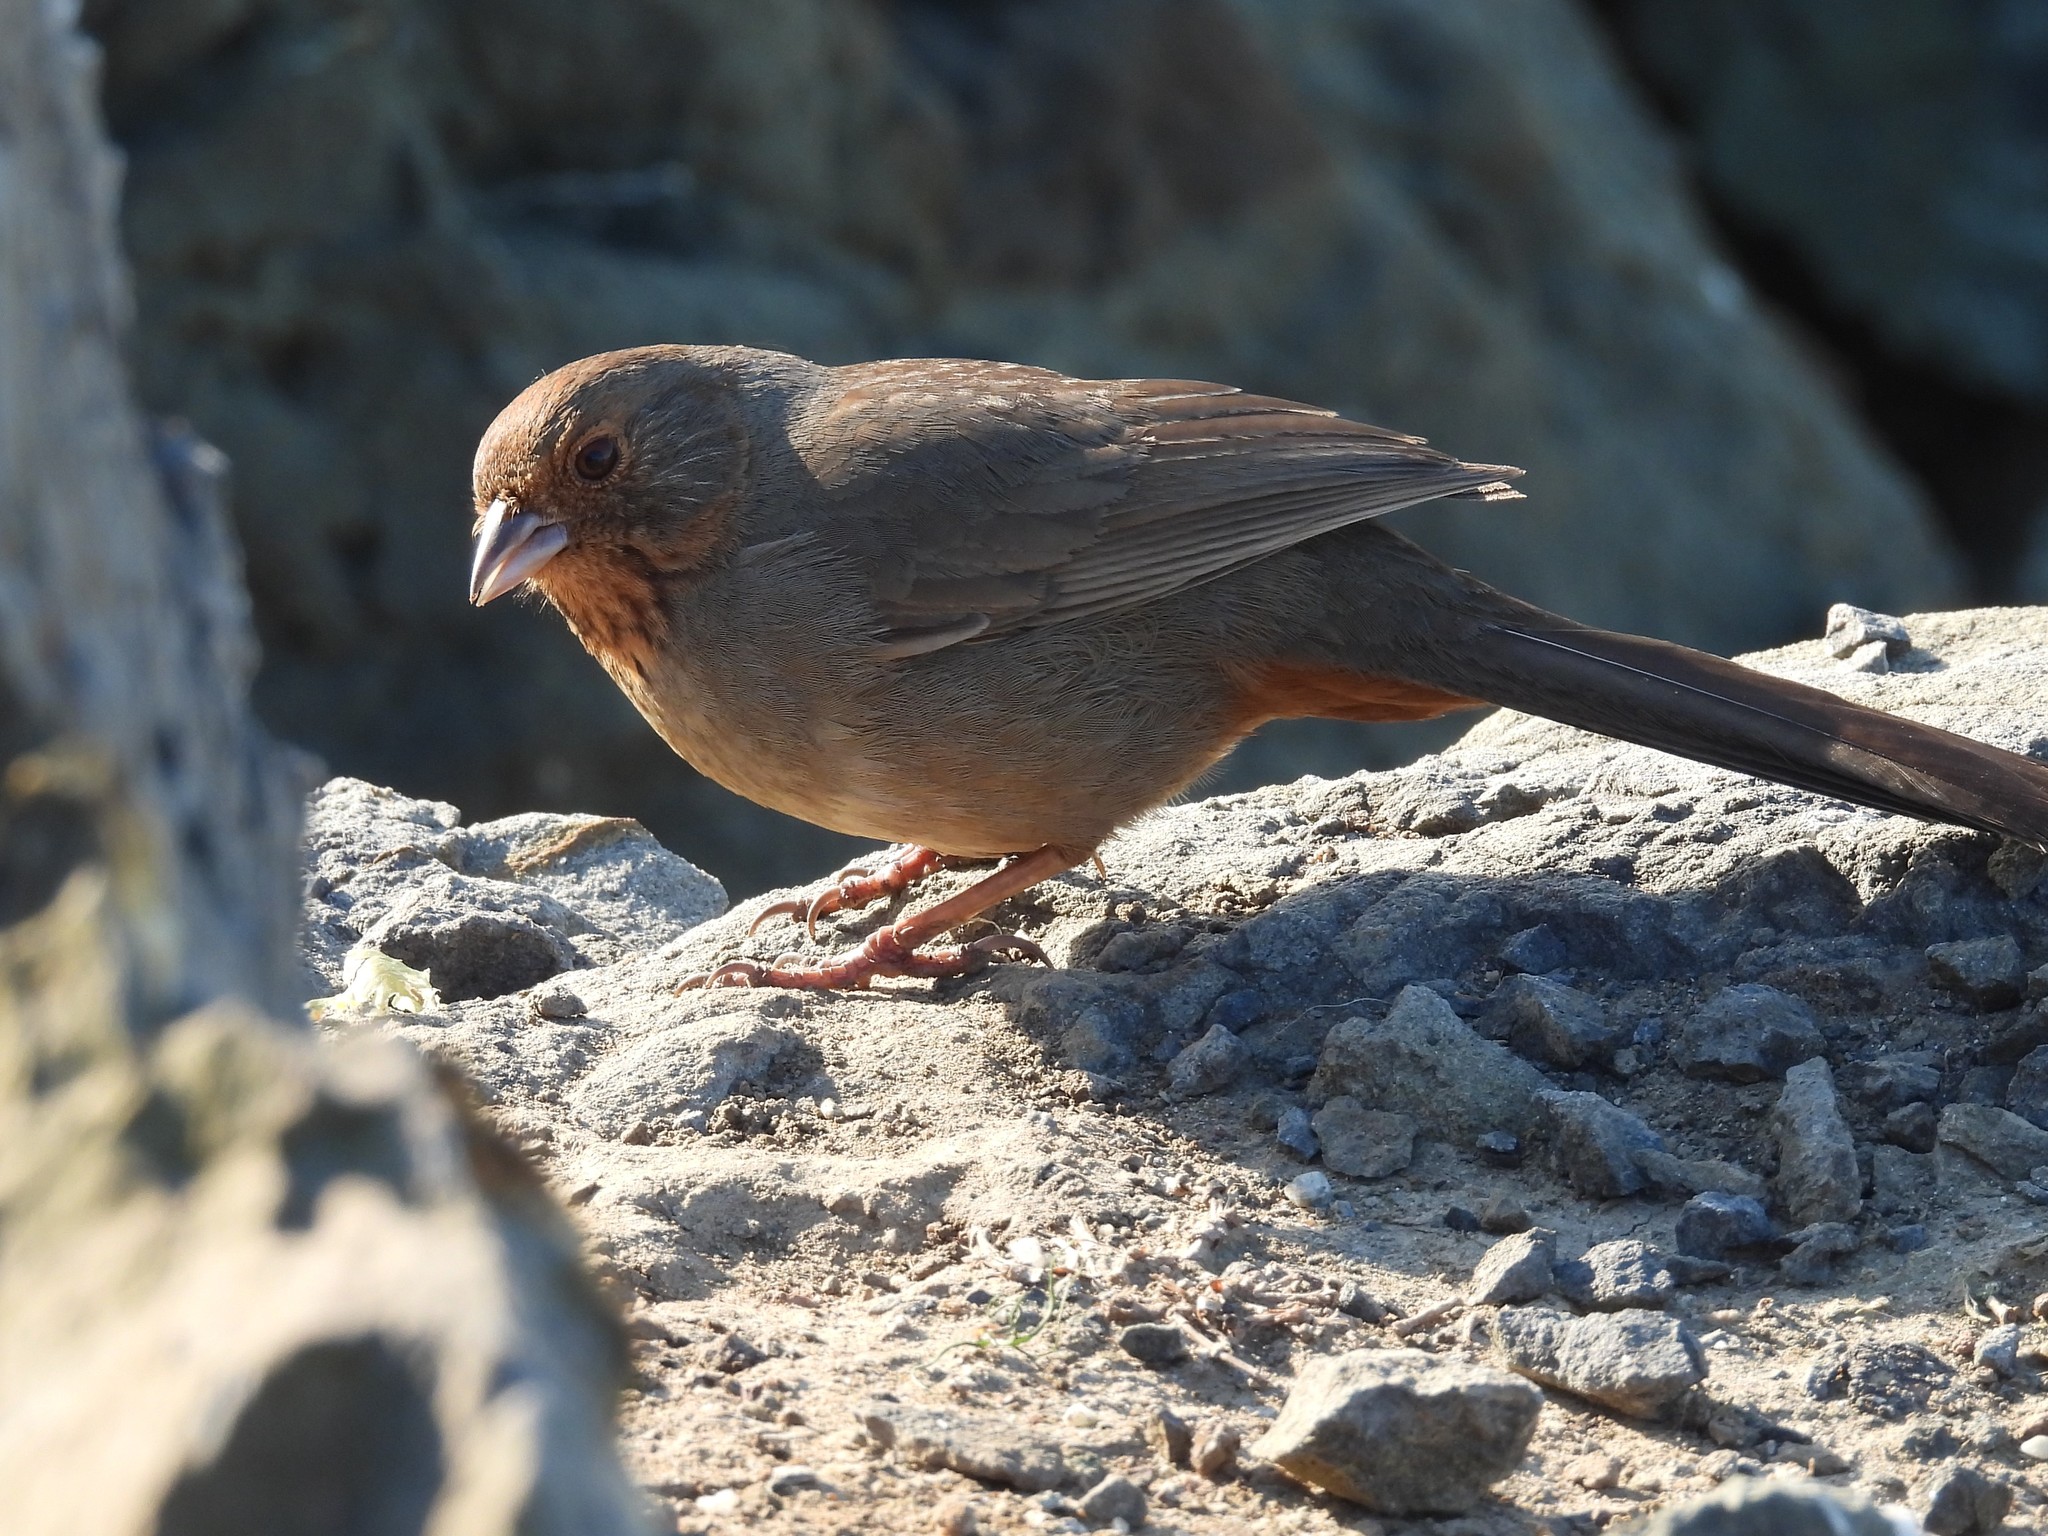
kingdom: Animalia
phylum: Chordata
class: Aves
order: Passeriformes
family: Passerellidae
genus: Melozone
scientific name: Melozone crissalis
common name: California towhee
